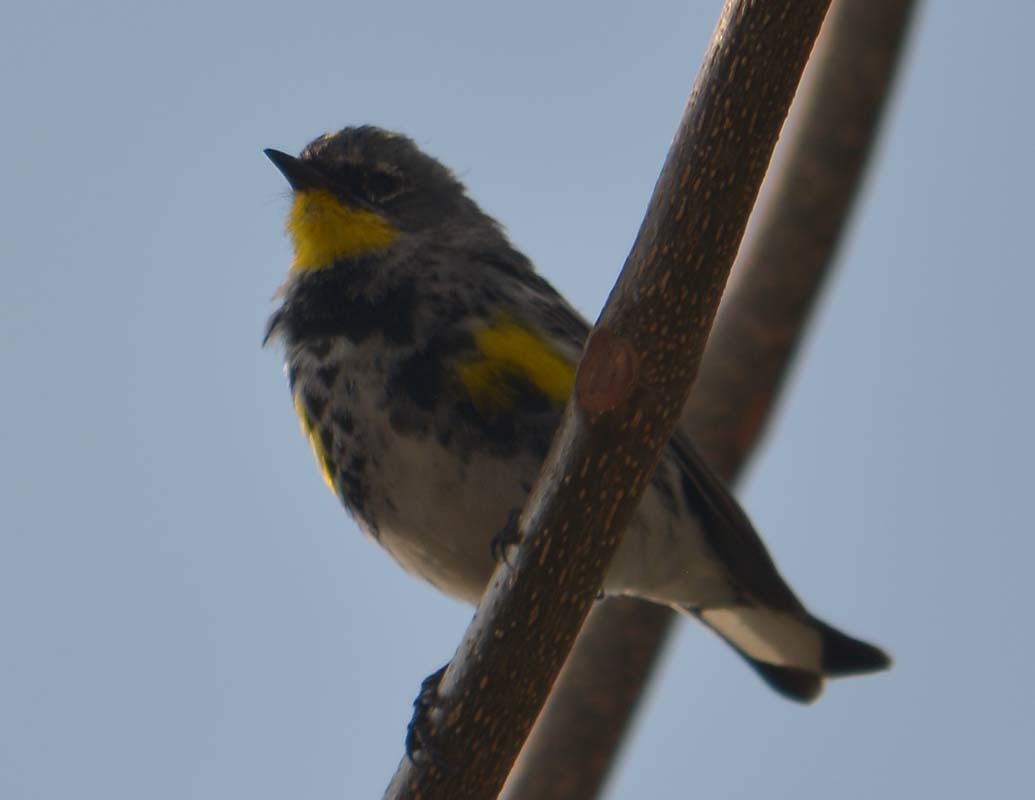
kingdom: Animalia
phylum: Chordata
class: Aves
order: Passeriformes
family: Parulidae
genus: Setophaga
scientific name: Setophaga auduboni
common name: Audubon's warbler
